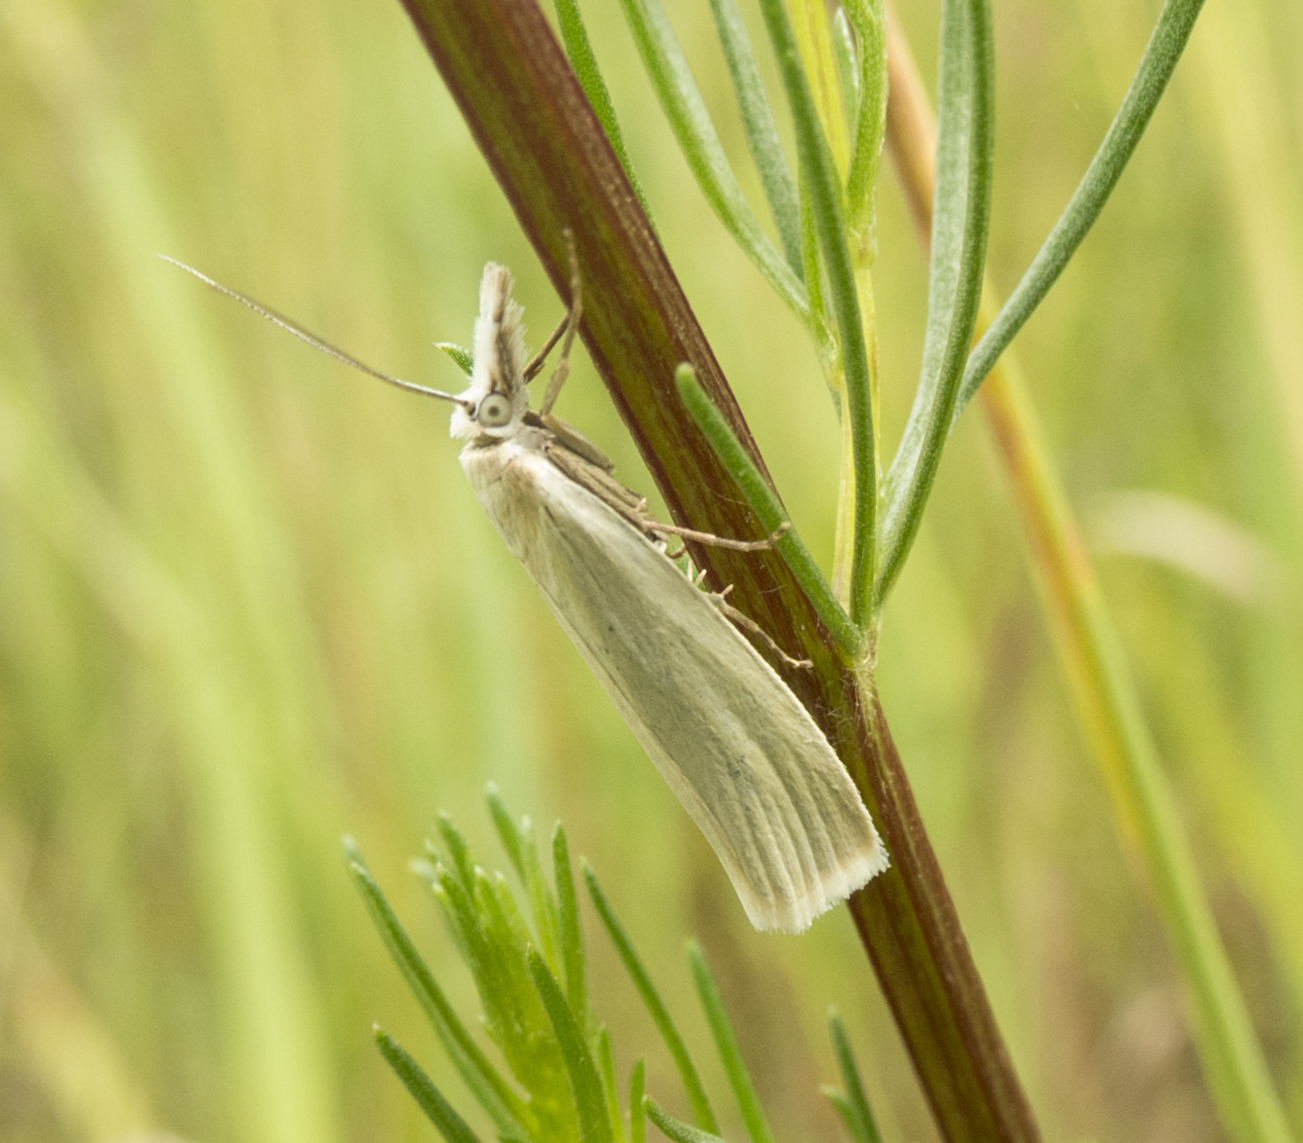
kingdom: Animalia
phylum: Arthropoda
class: Insecta
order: Lepidoptera
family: Crambidae
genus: Crambus
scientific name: Crambus perlellus
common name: Yellow satin veneer
